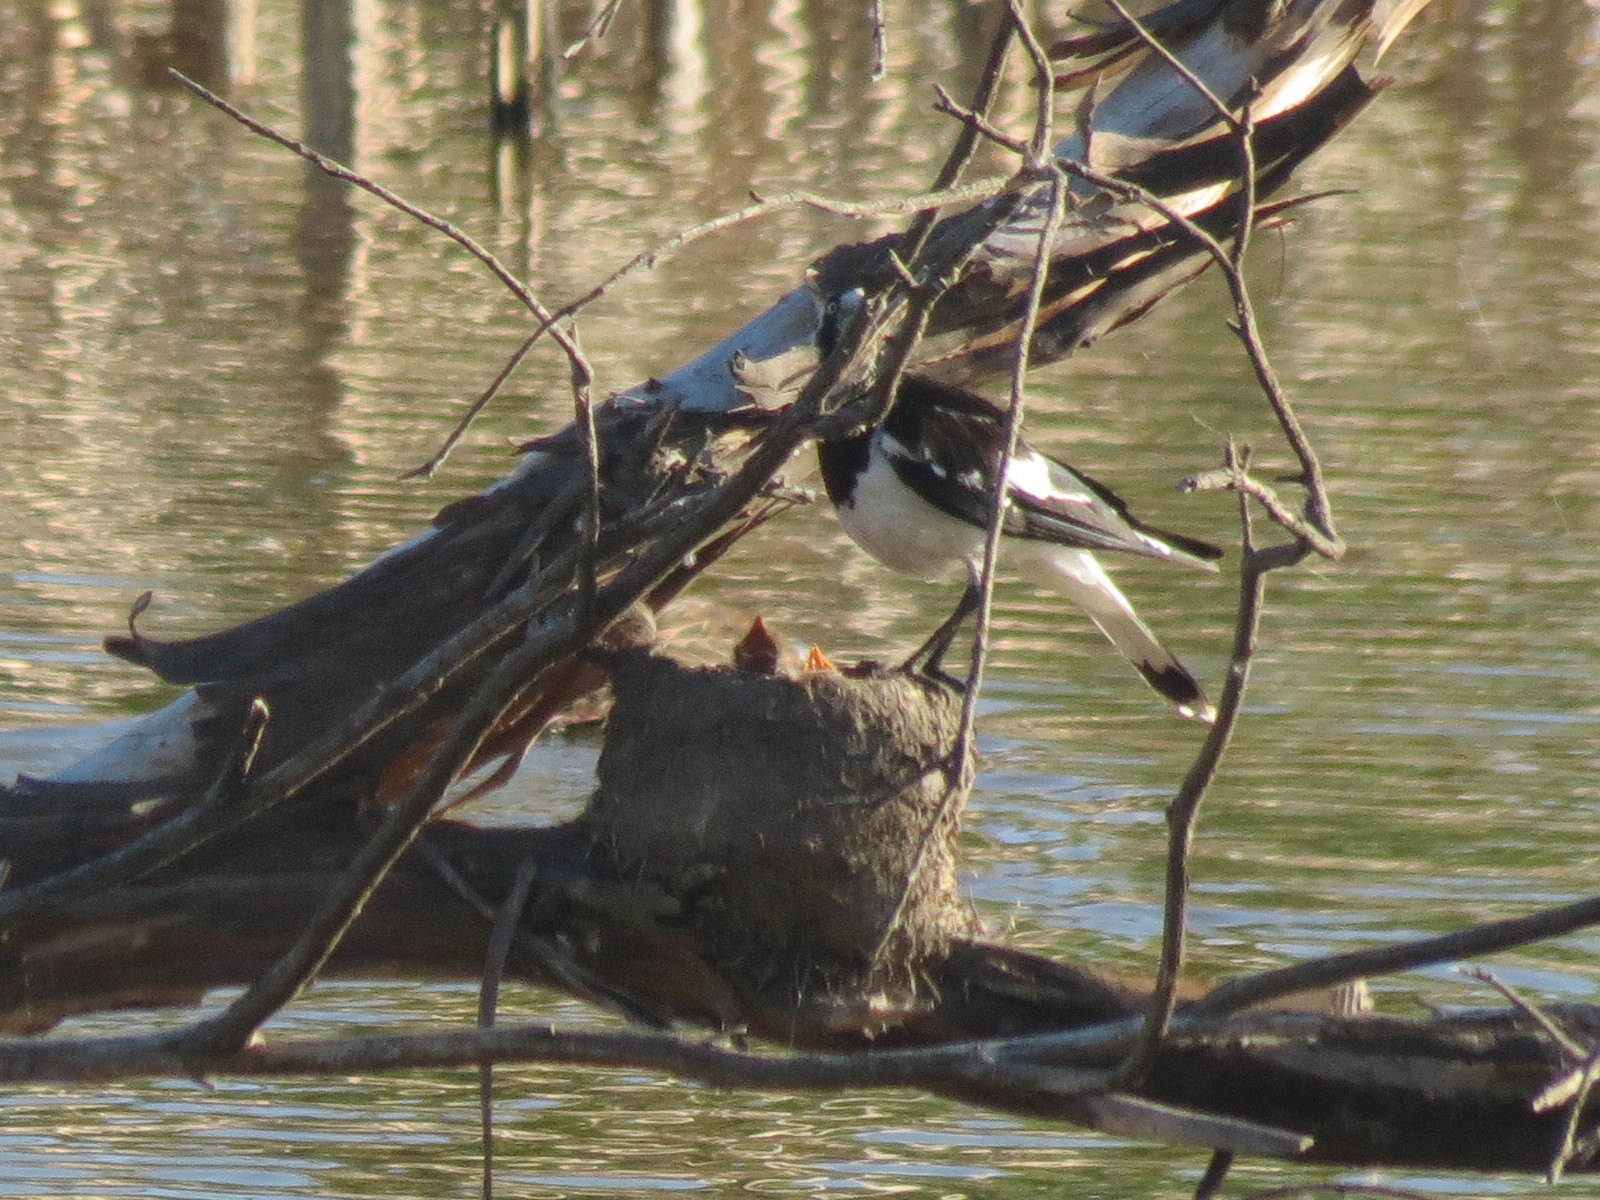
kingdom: Animalia
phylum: Chordata
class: Aves
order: Passeriformes
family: Monarchidae
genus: Grallina
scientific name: Grallina cyanoleuca
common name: Magpie-lark
